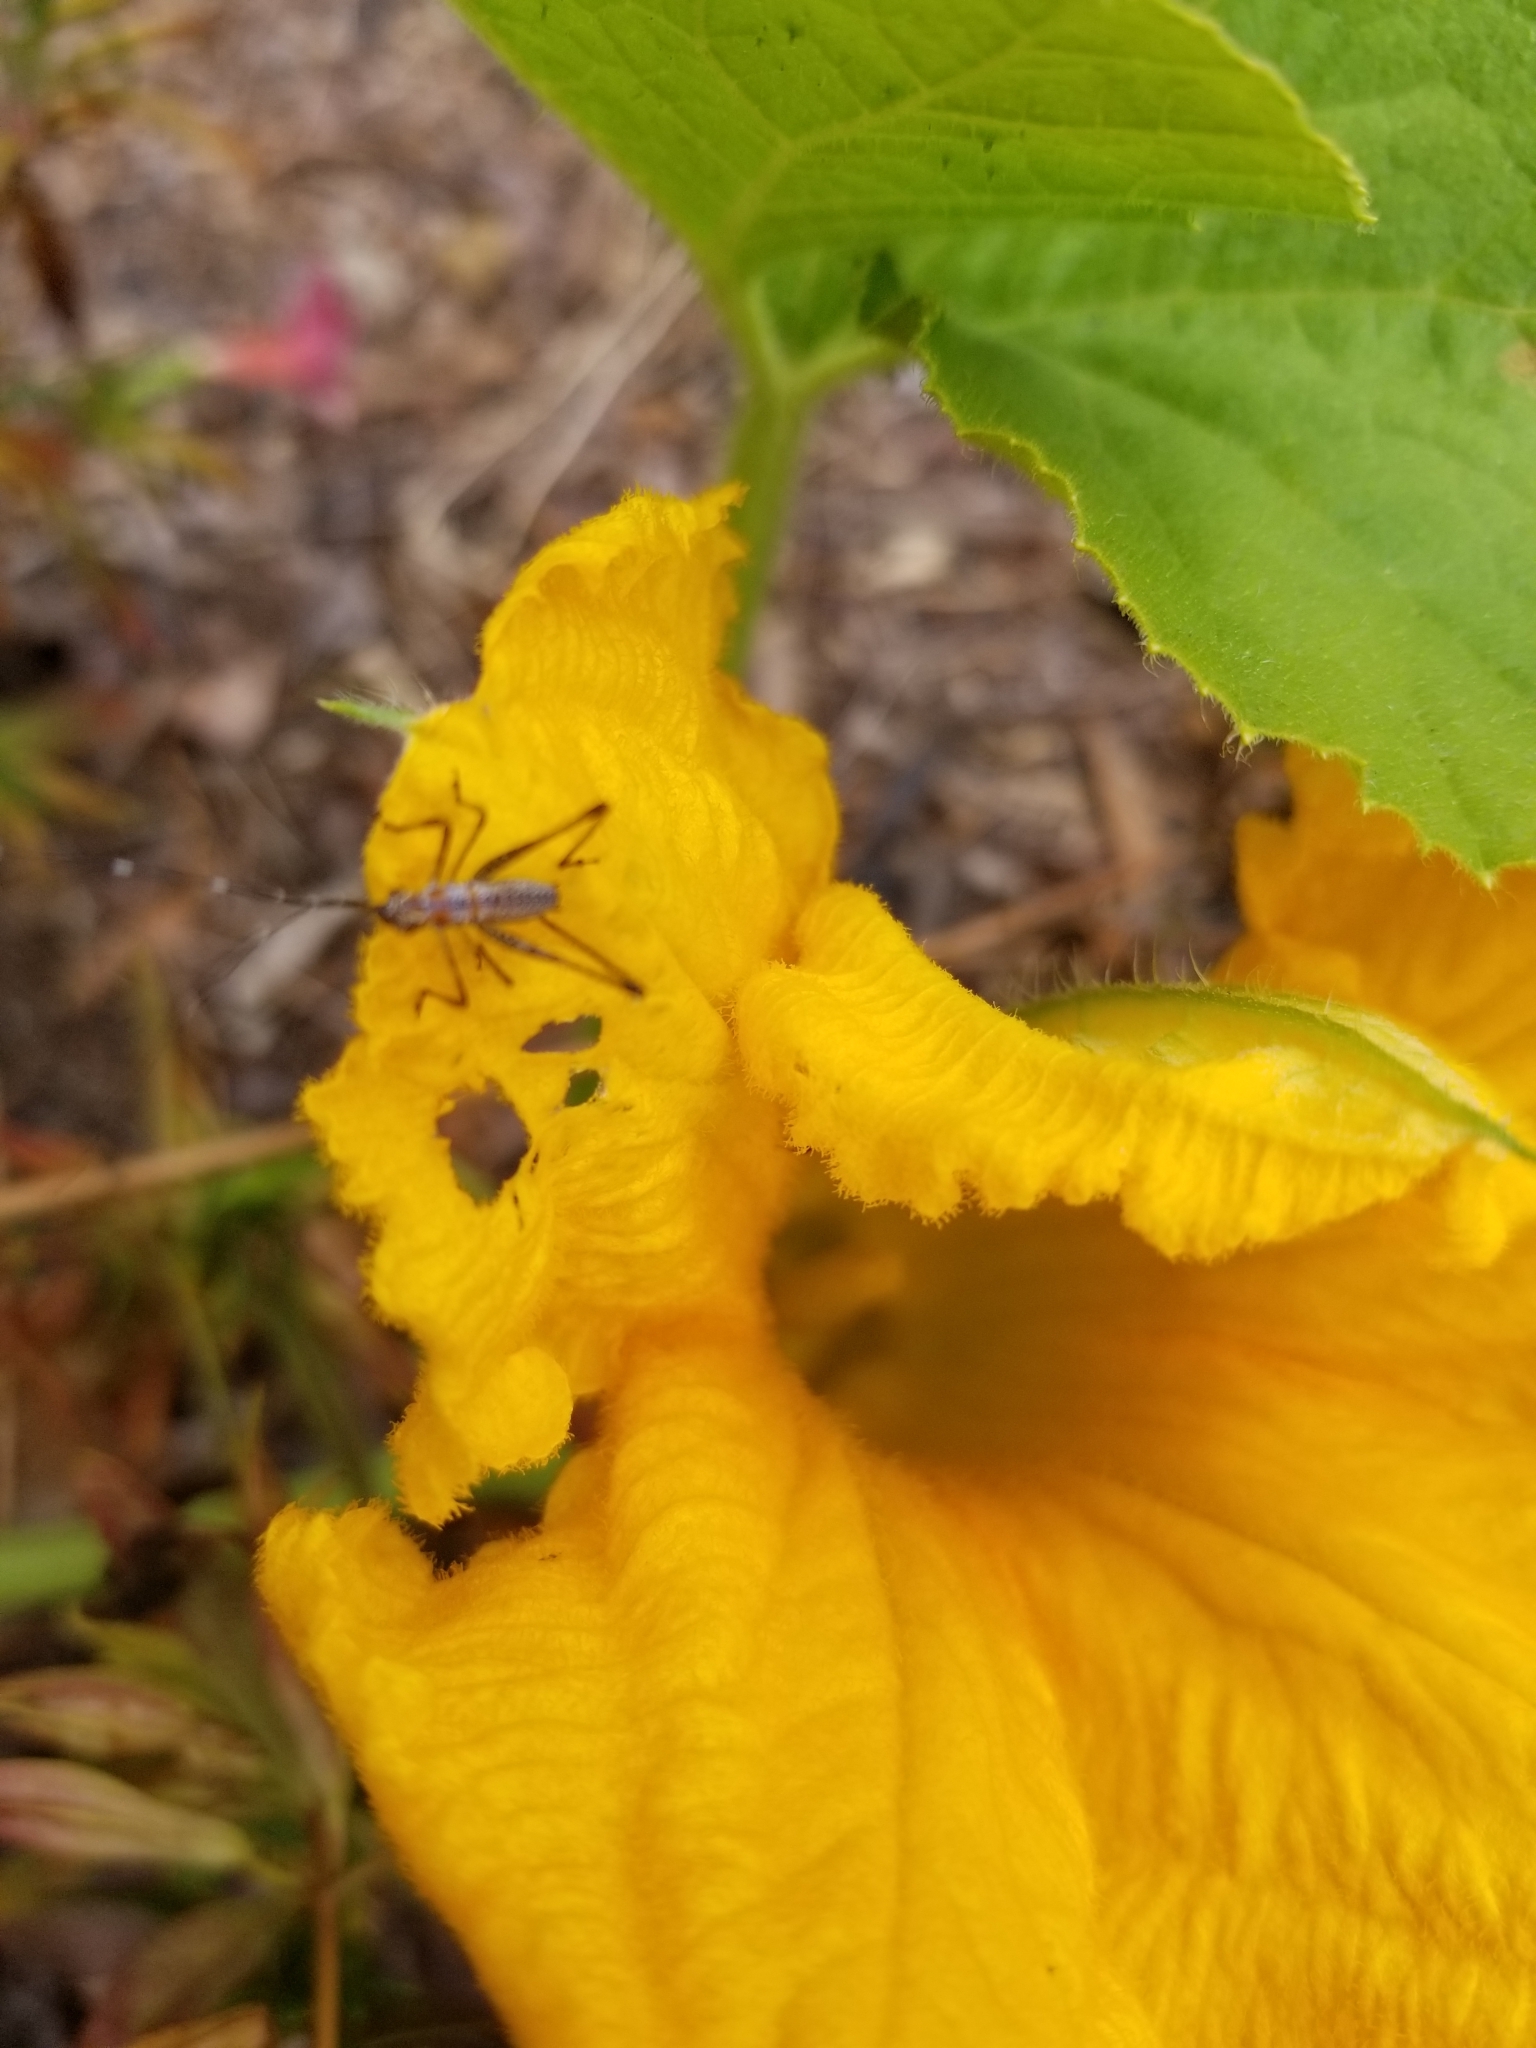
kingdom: Animalia
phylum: Arthropoda
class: Insecta
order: Orthoptera
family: Tettigoniidae
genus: Scudderia
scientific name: Scudderia
